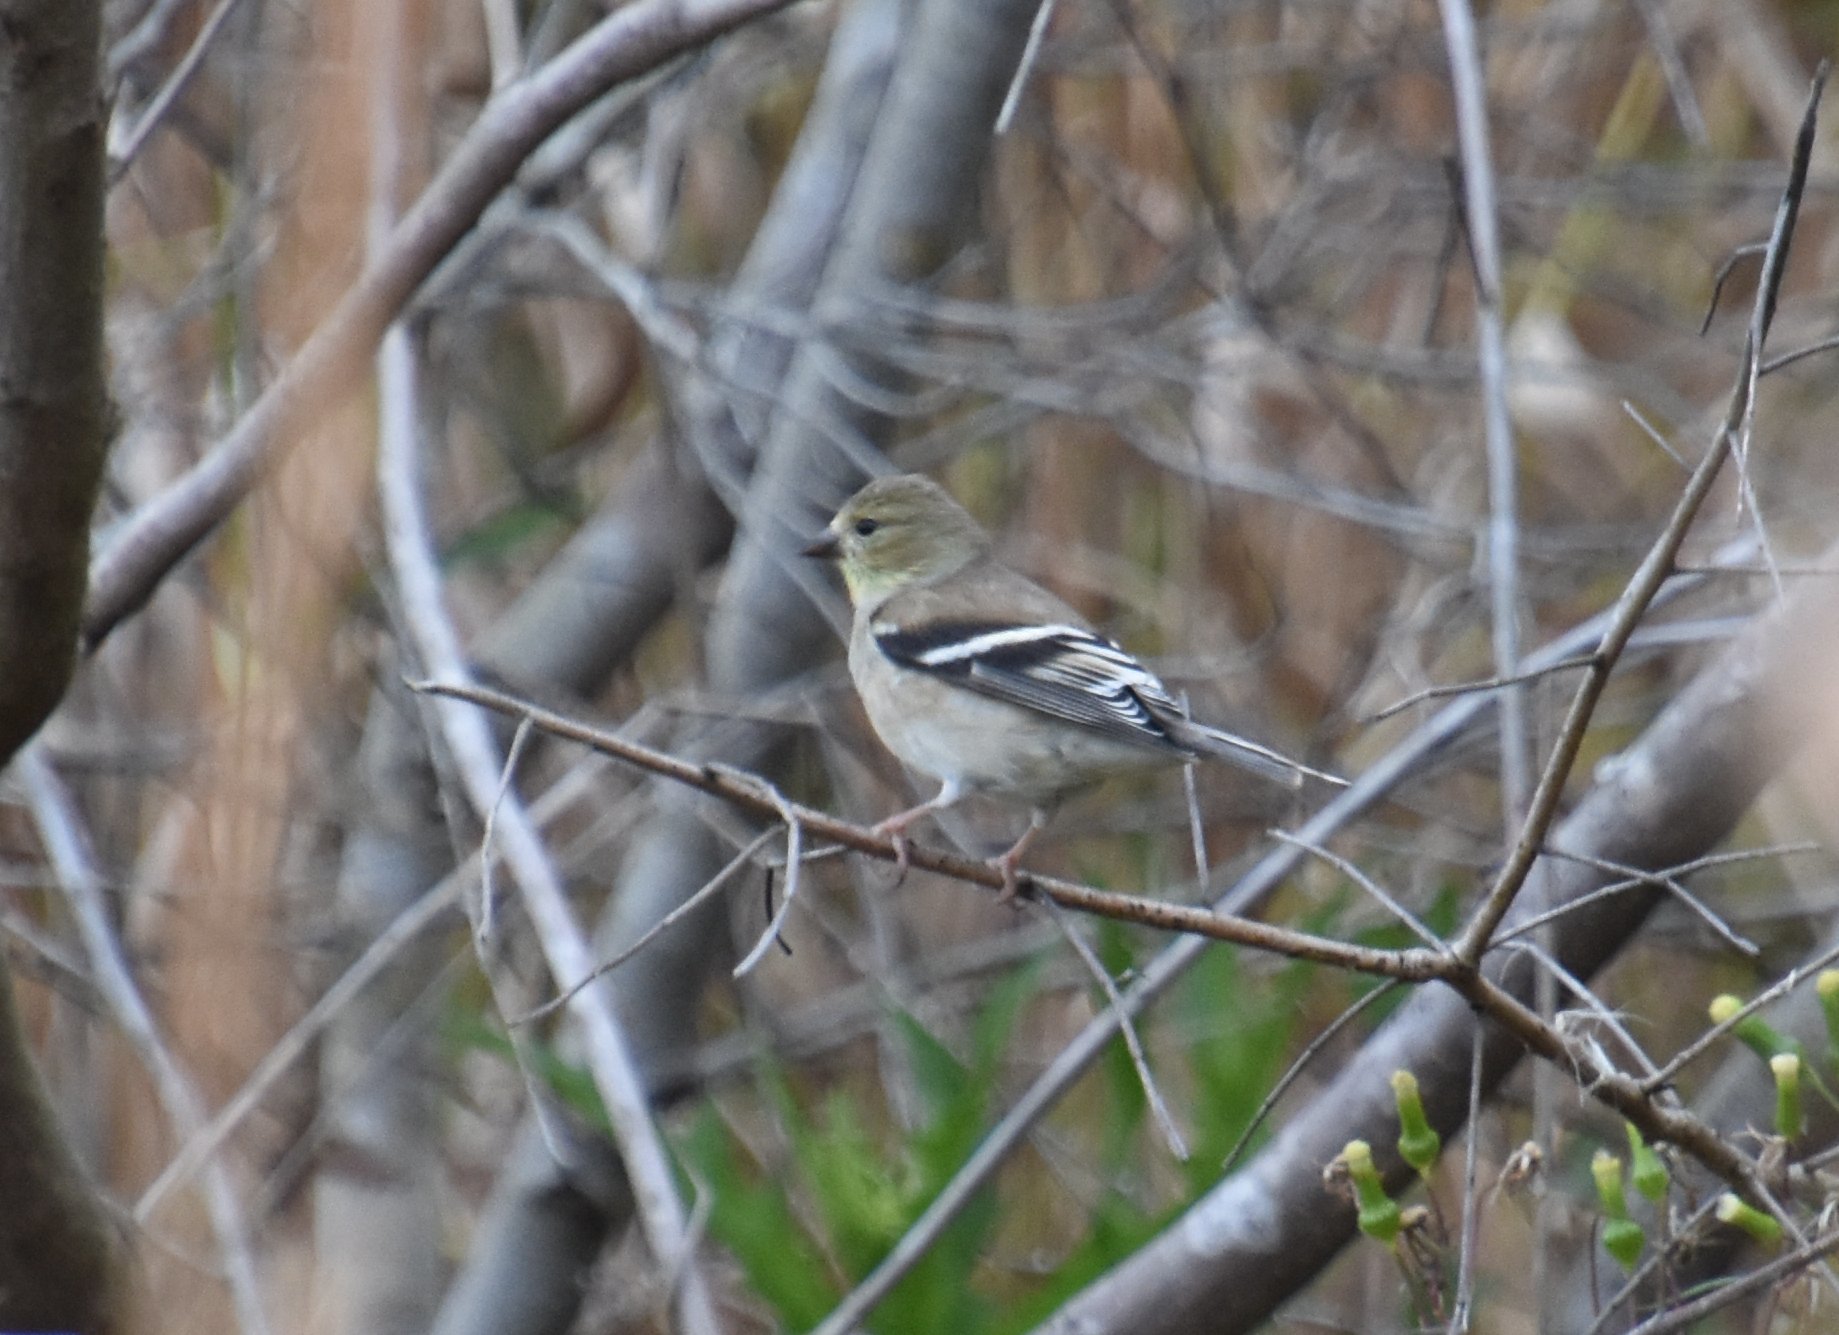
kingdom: Animalia
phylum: Chordata
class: Aves
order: Passeriformes
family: Fringillidae
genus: Spinus
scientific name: Spinus tristis
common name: American goldfinch
